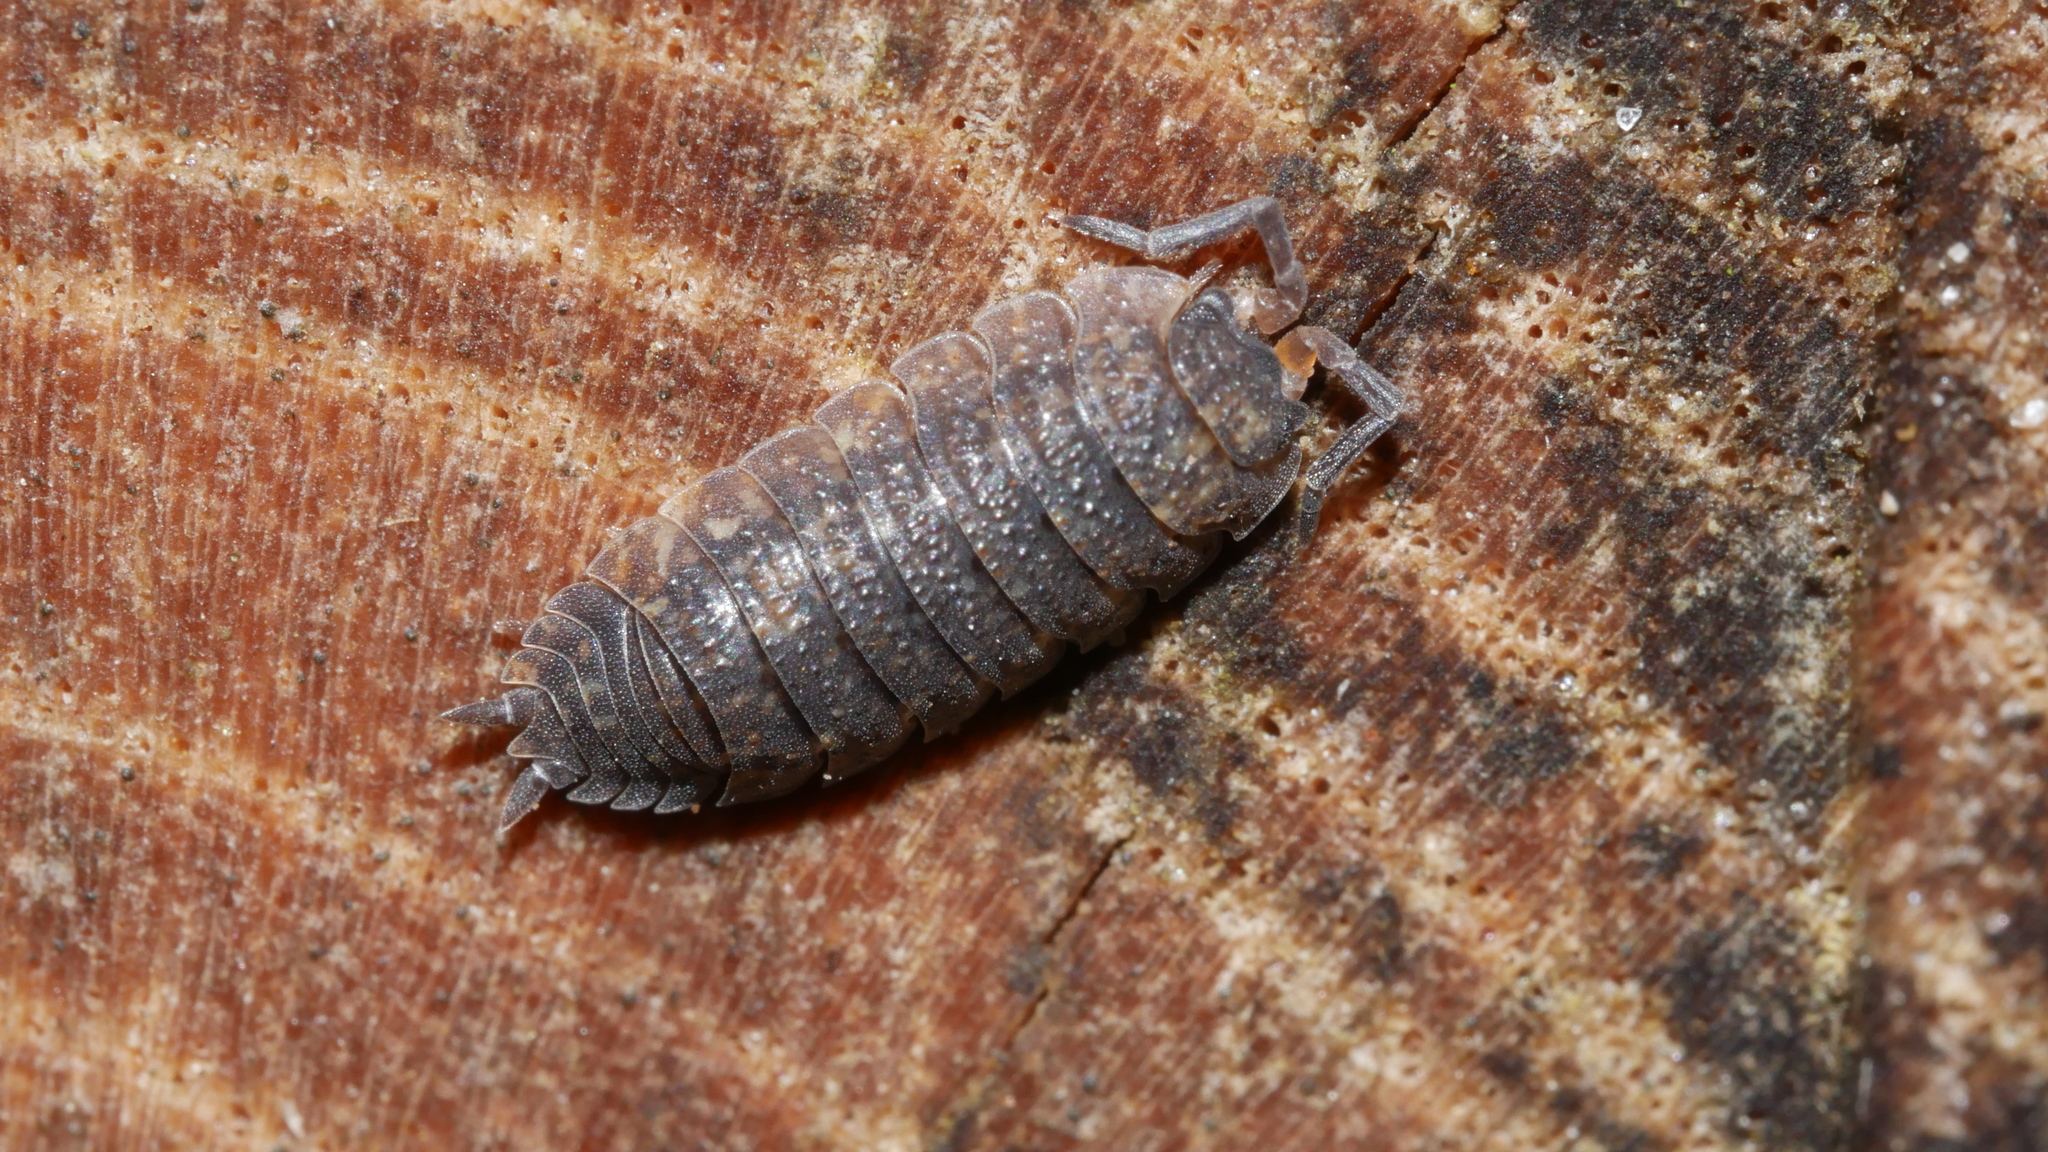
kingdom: Animalia
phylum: Arthropoda
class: Malacostraca
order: Isopoda
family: Porcellionidae
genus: Porcellio
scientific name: Porcellio scaber
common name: Common rough woodlouse
